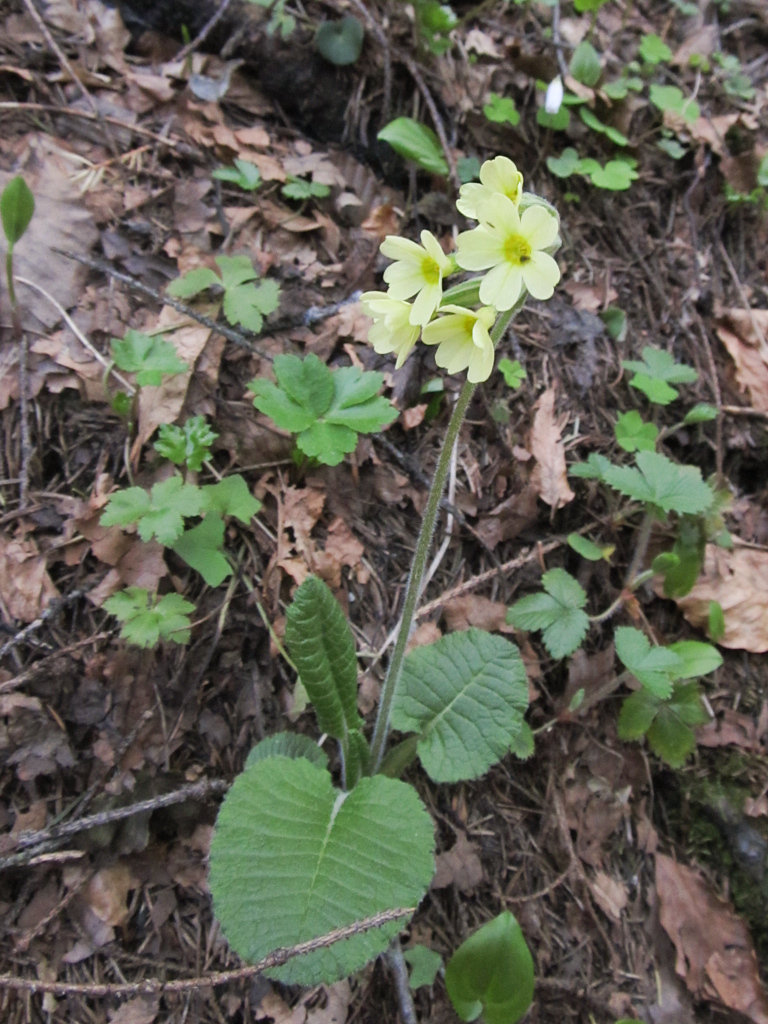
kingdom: Plantae
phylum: Tracheophyta
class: Magnoliopsida
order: Ericales
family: Primulaceae
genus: Primula
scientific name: Primula elatior
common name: Oxlip
